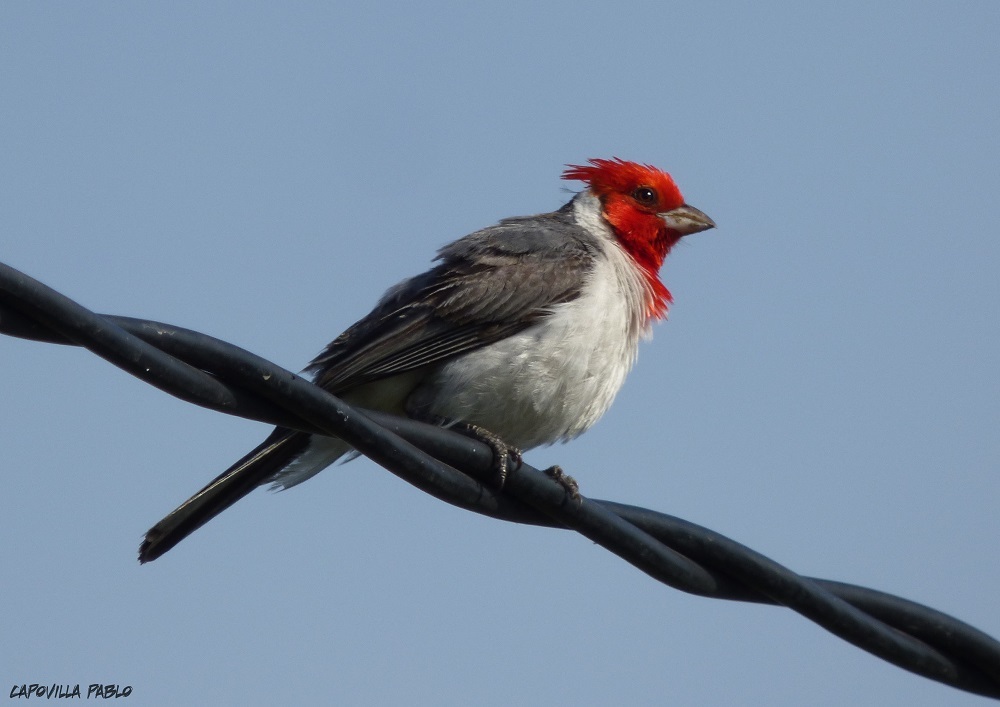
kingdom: Animalia
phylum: Chordata
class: Aves
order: Passeriformes
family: Thraupidae
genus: Paroaria
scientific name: Paroaria coronata
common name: Red-crested cardinal
